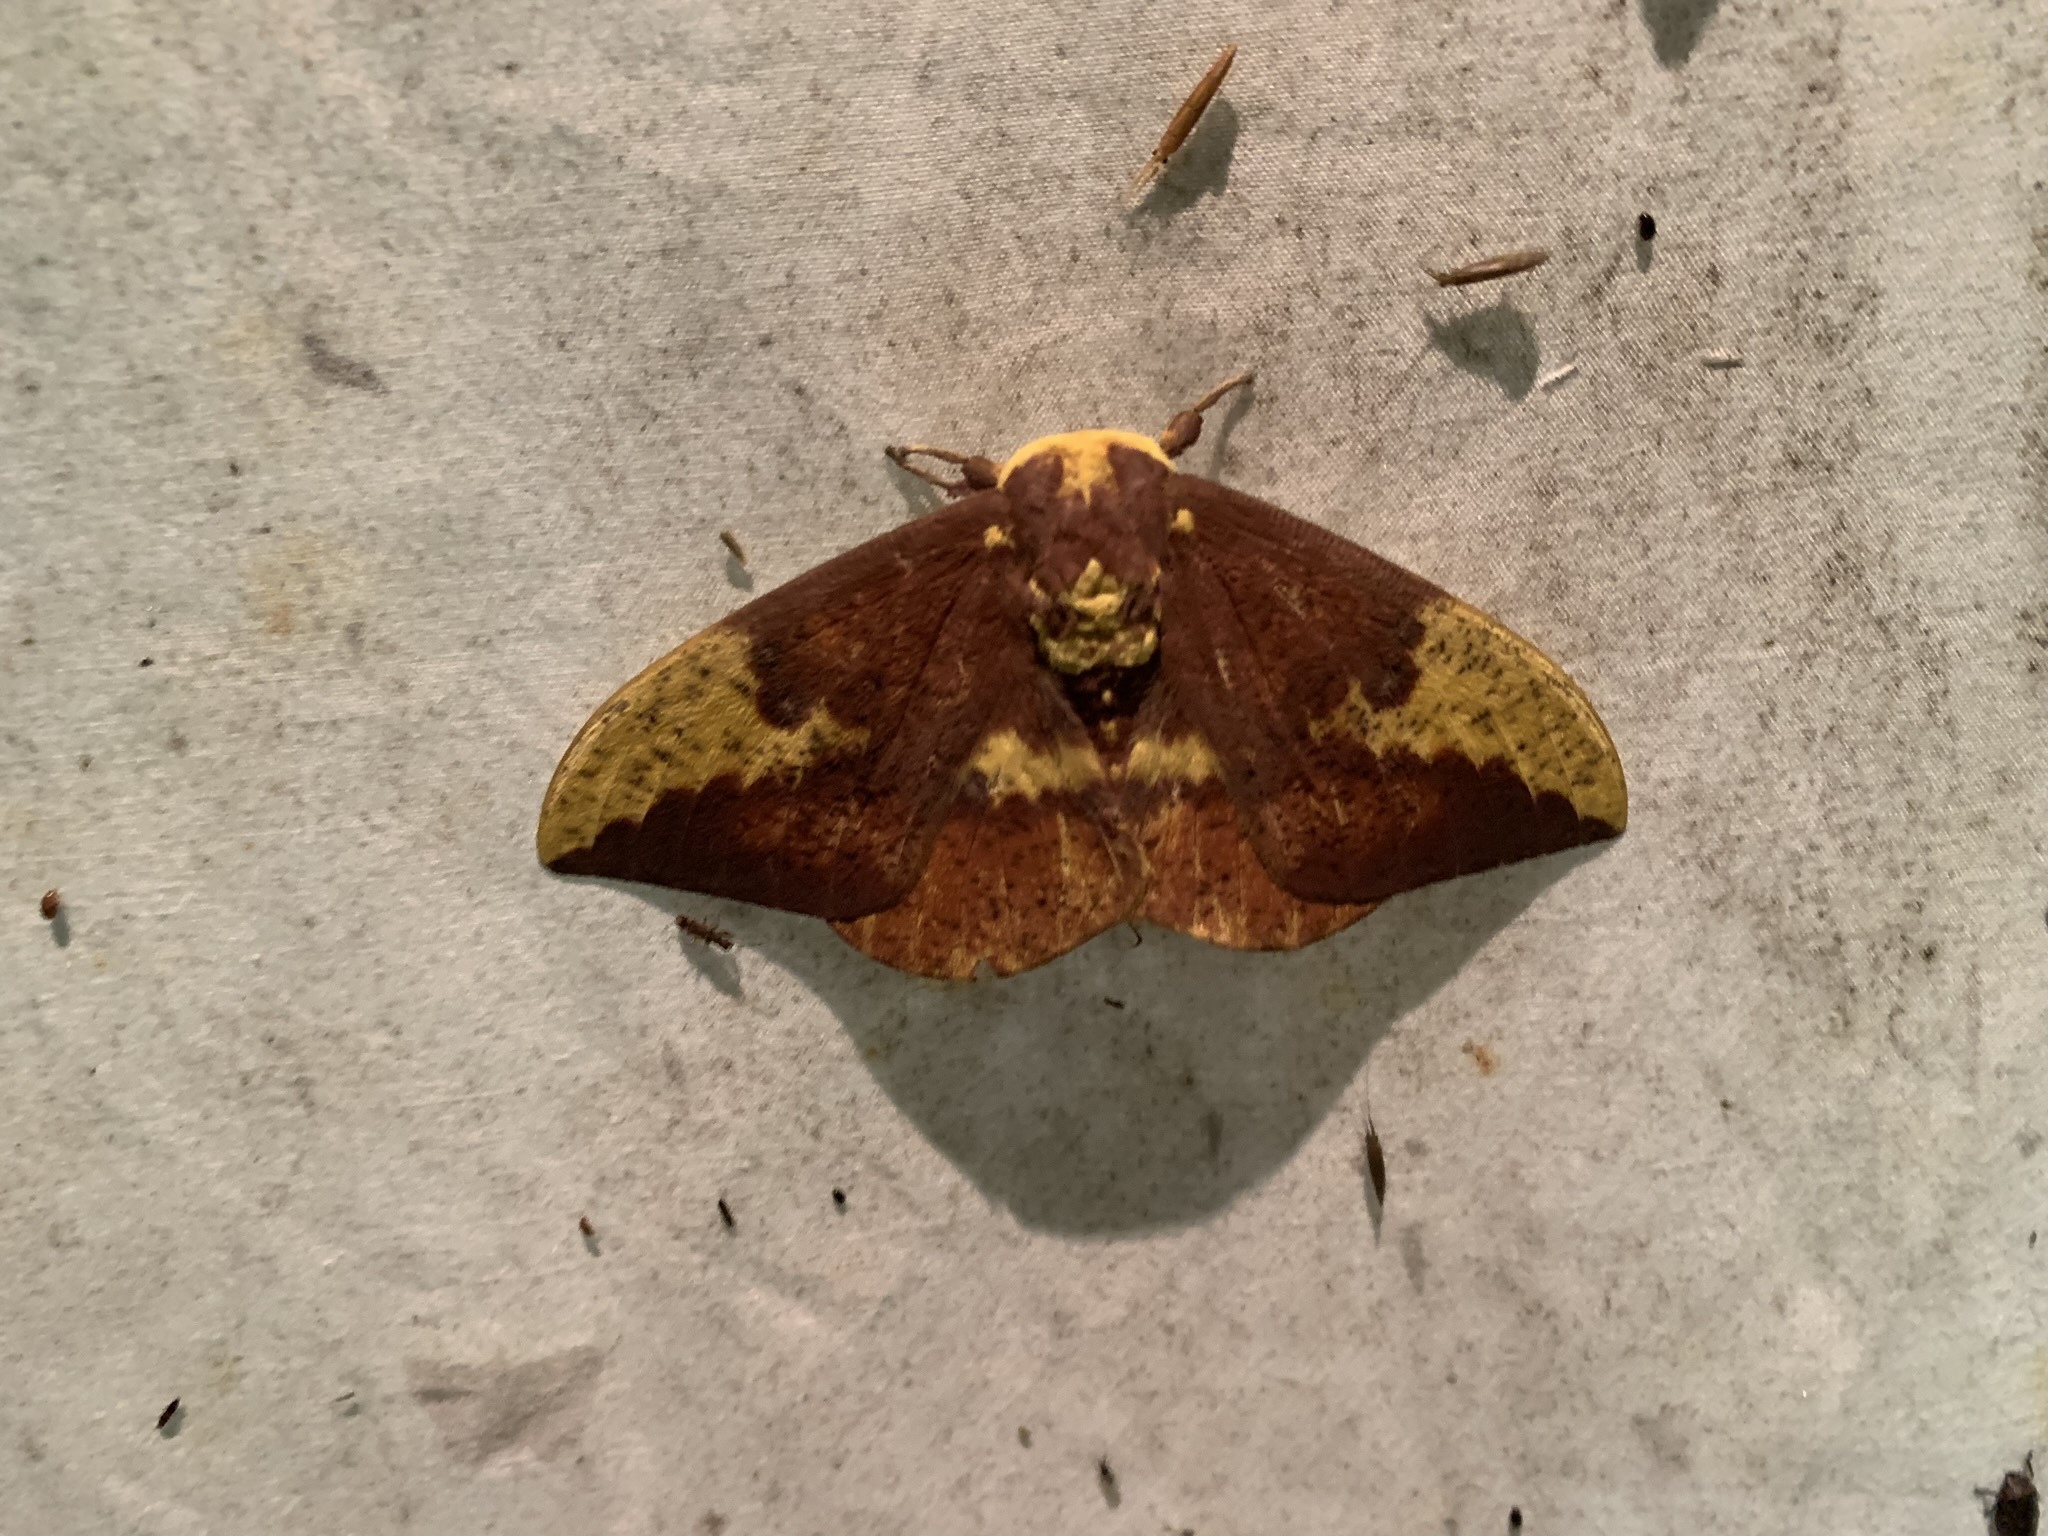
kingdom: Animalia
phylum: Arthropoda
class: Insecta
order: Lepidoptera
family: Saturniidae
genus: Eacles
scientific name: Eacles imperialis
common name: Imperial moth
